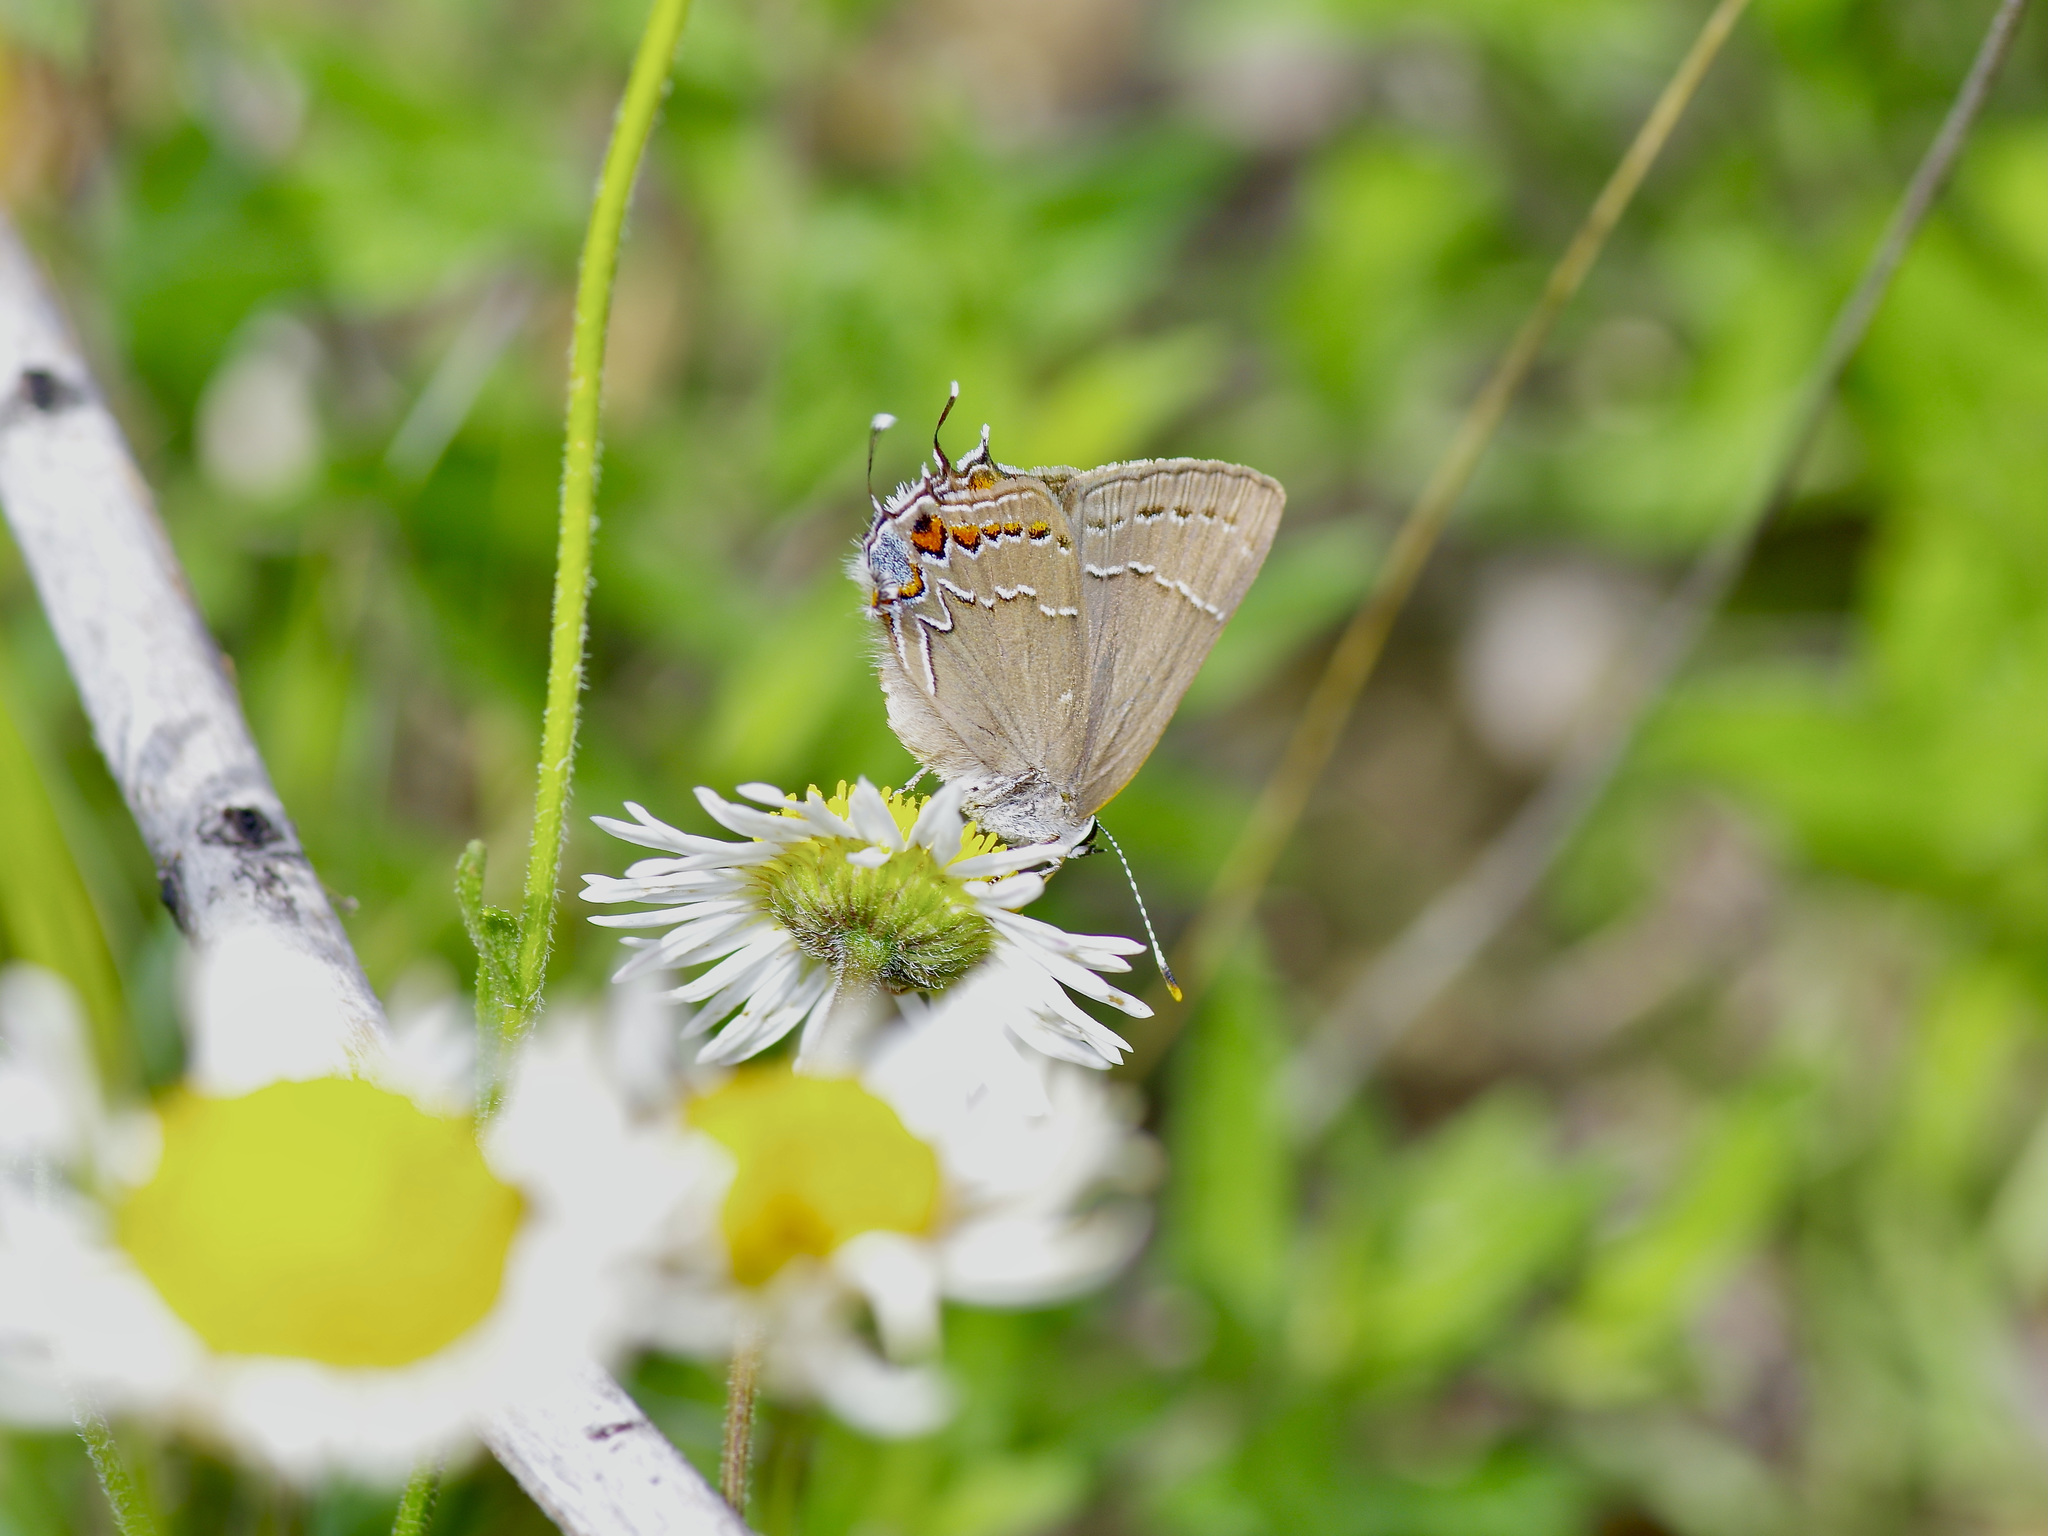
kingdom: Animalia
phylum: Arthropoda
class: Insecta
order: Lepidoptera
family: Lycaenidae
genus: Fixsenia
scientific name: Fixsenia favonius
